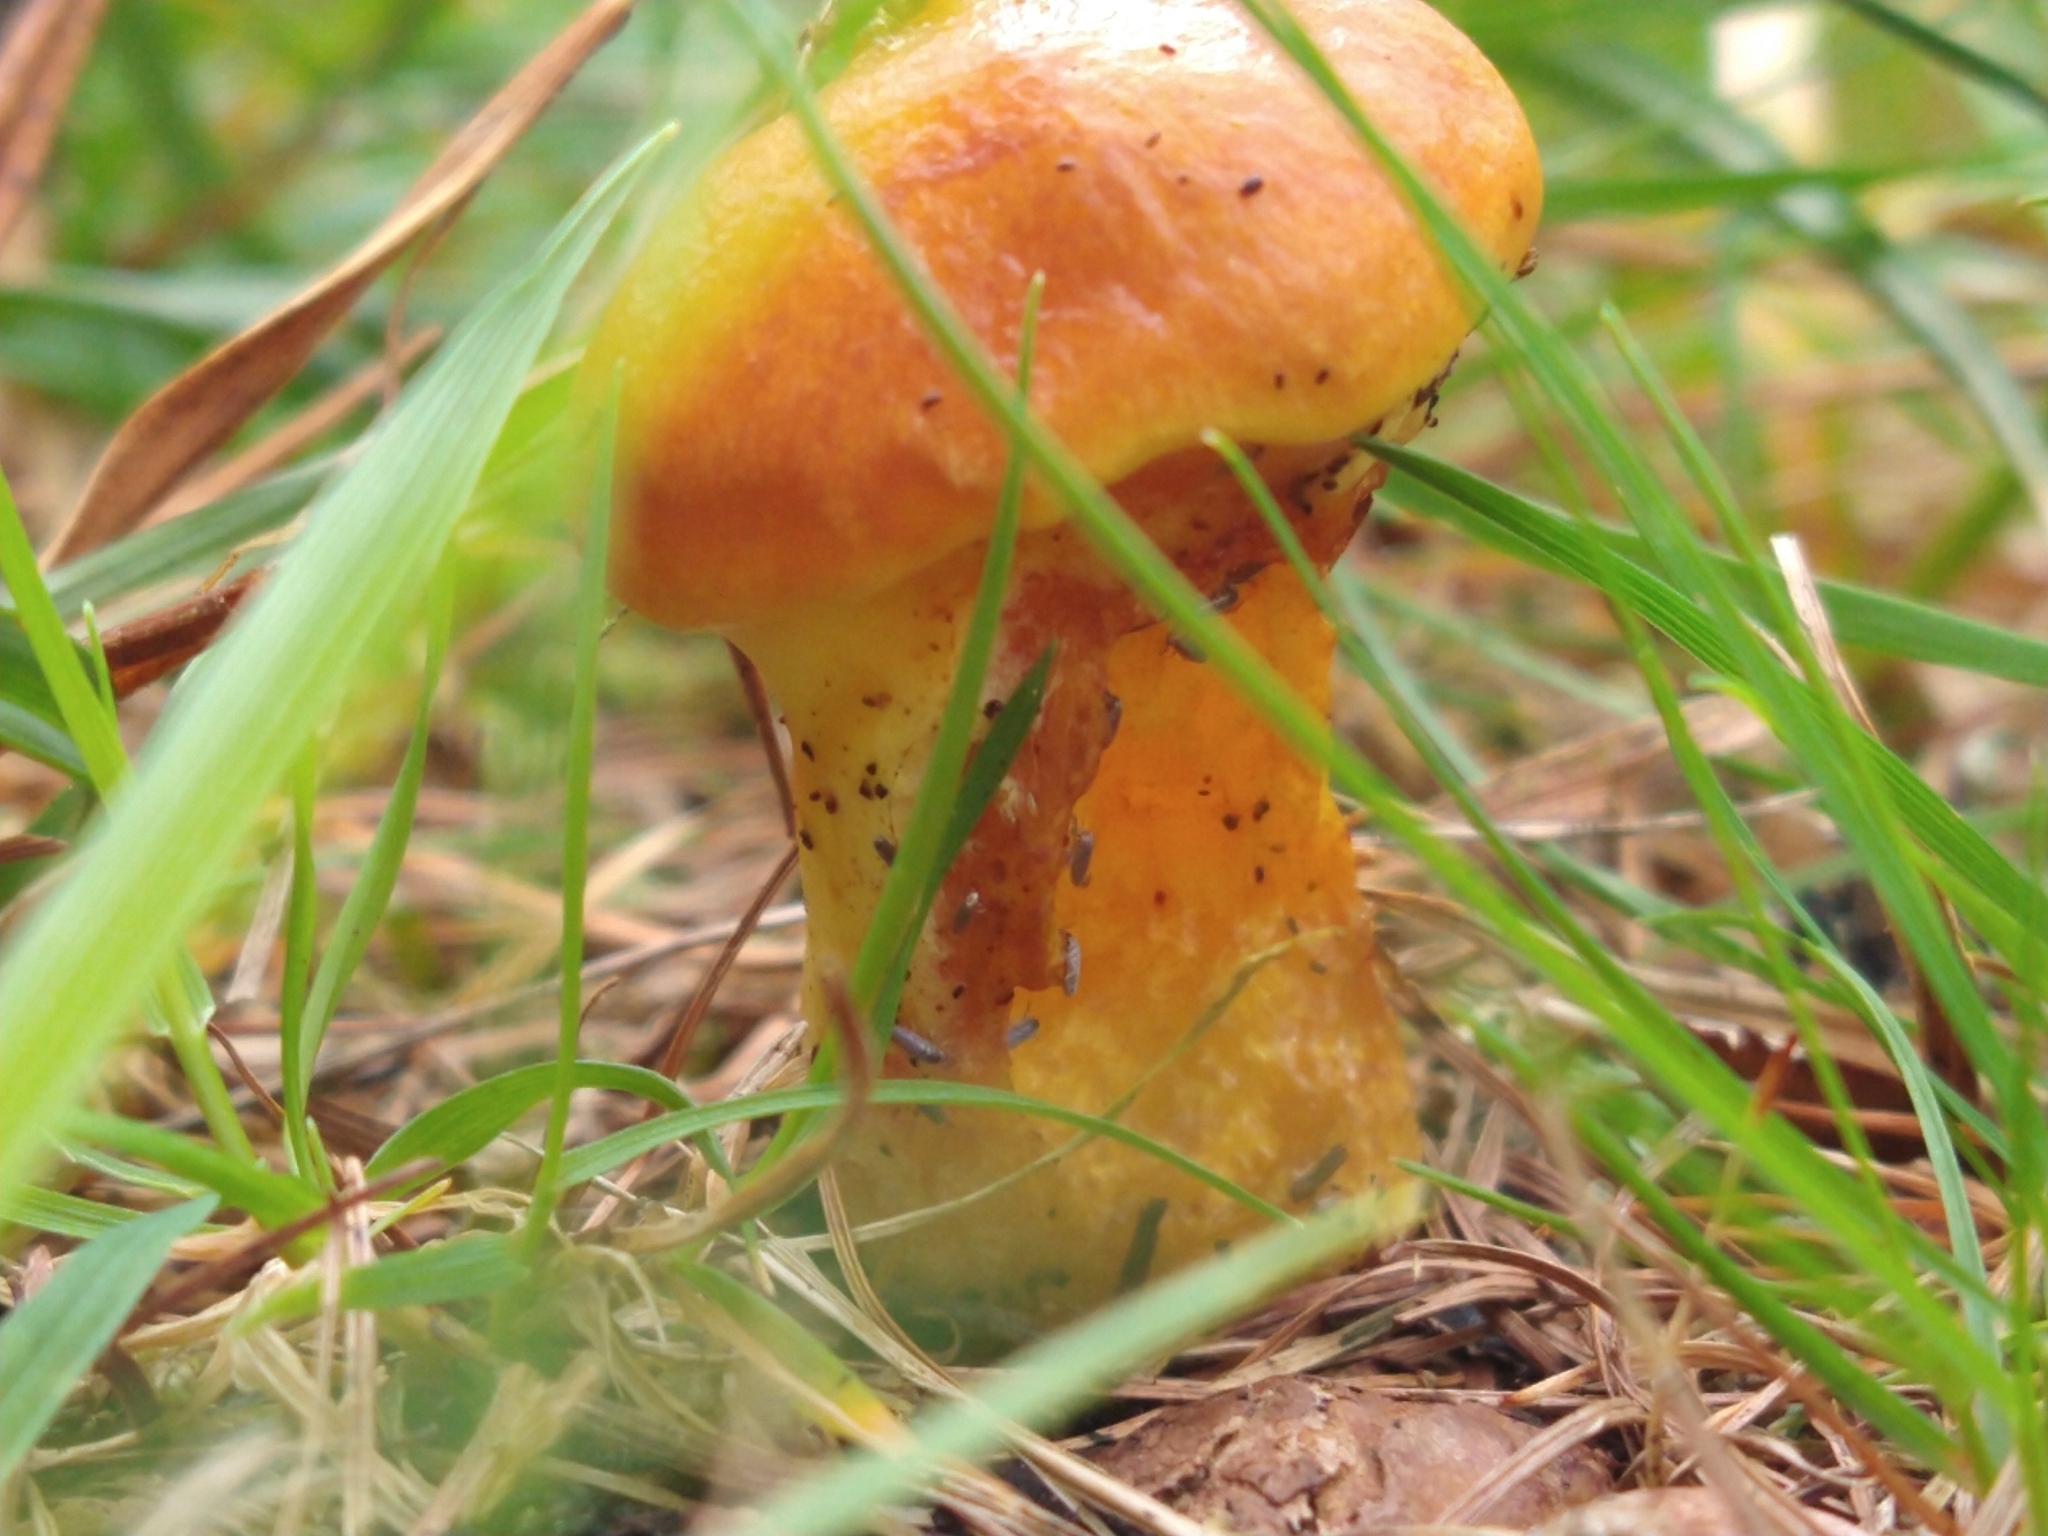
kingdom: Fungi
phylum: Basidiomycota
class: Agaricomycetes
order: Boletales
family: Suillaceae
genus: Suillus
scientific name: Suillus grevillei
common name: Larch bolete
